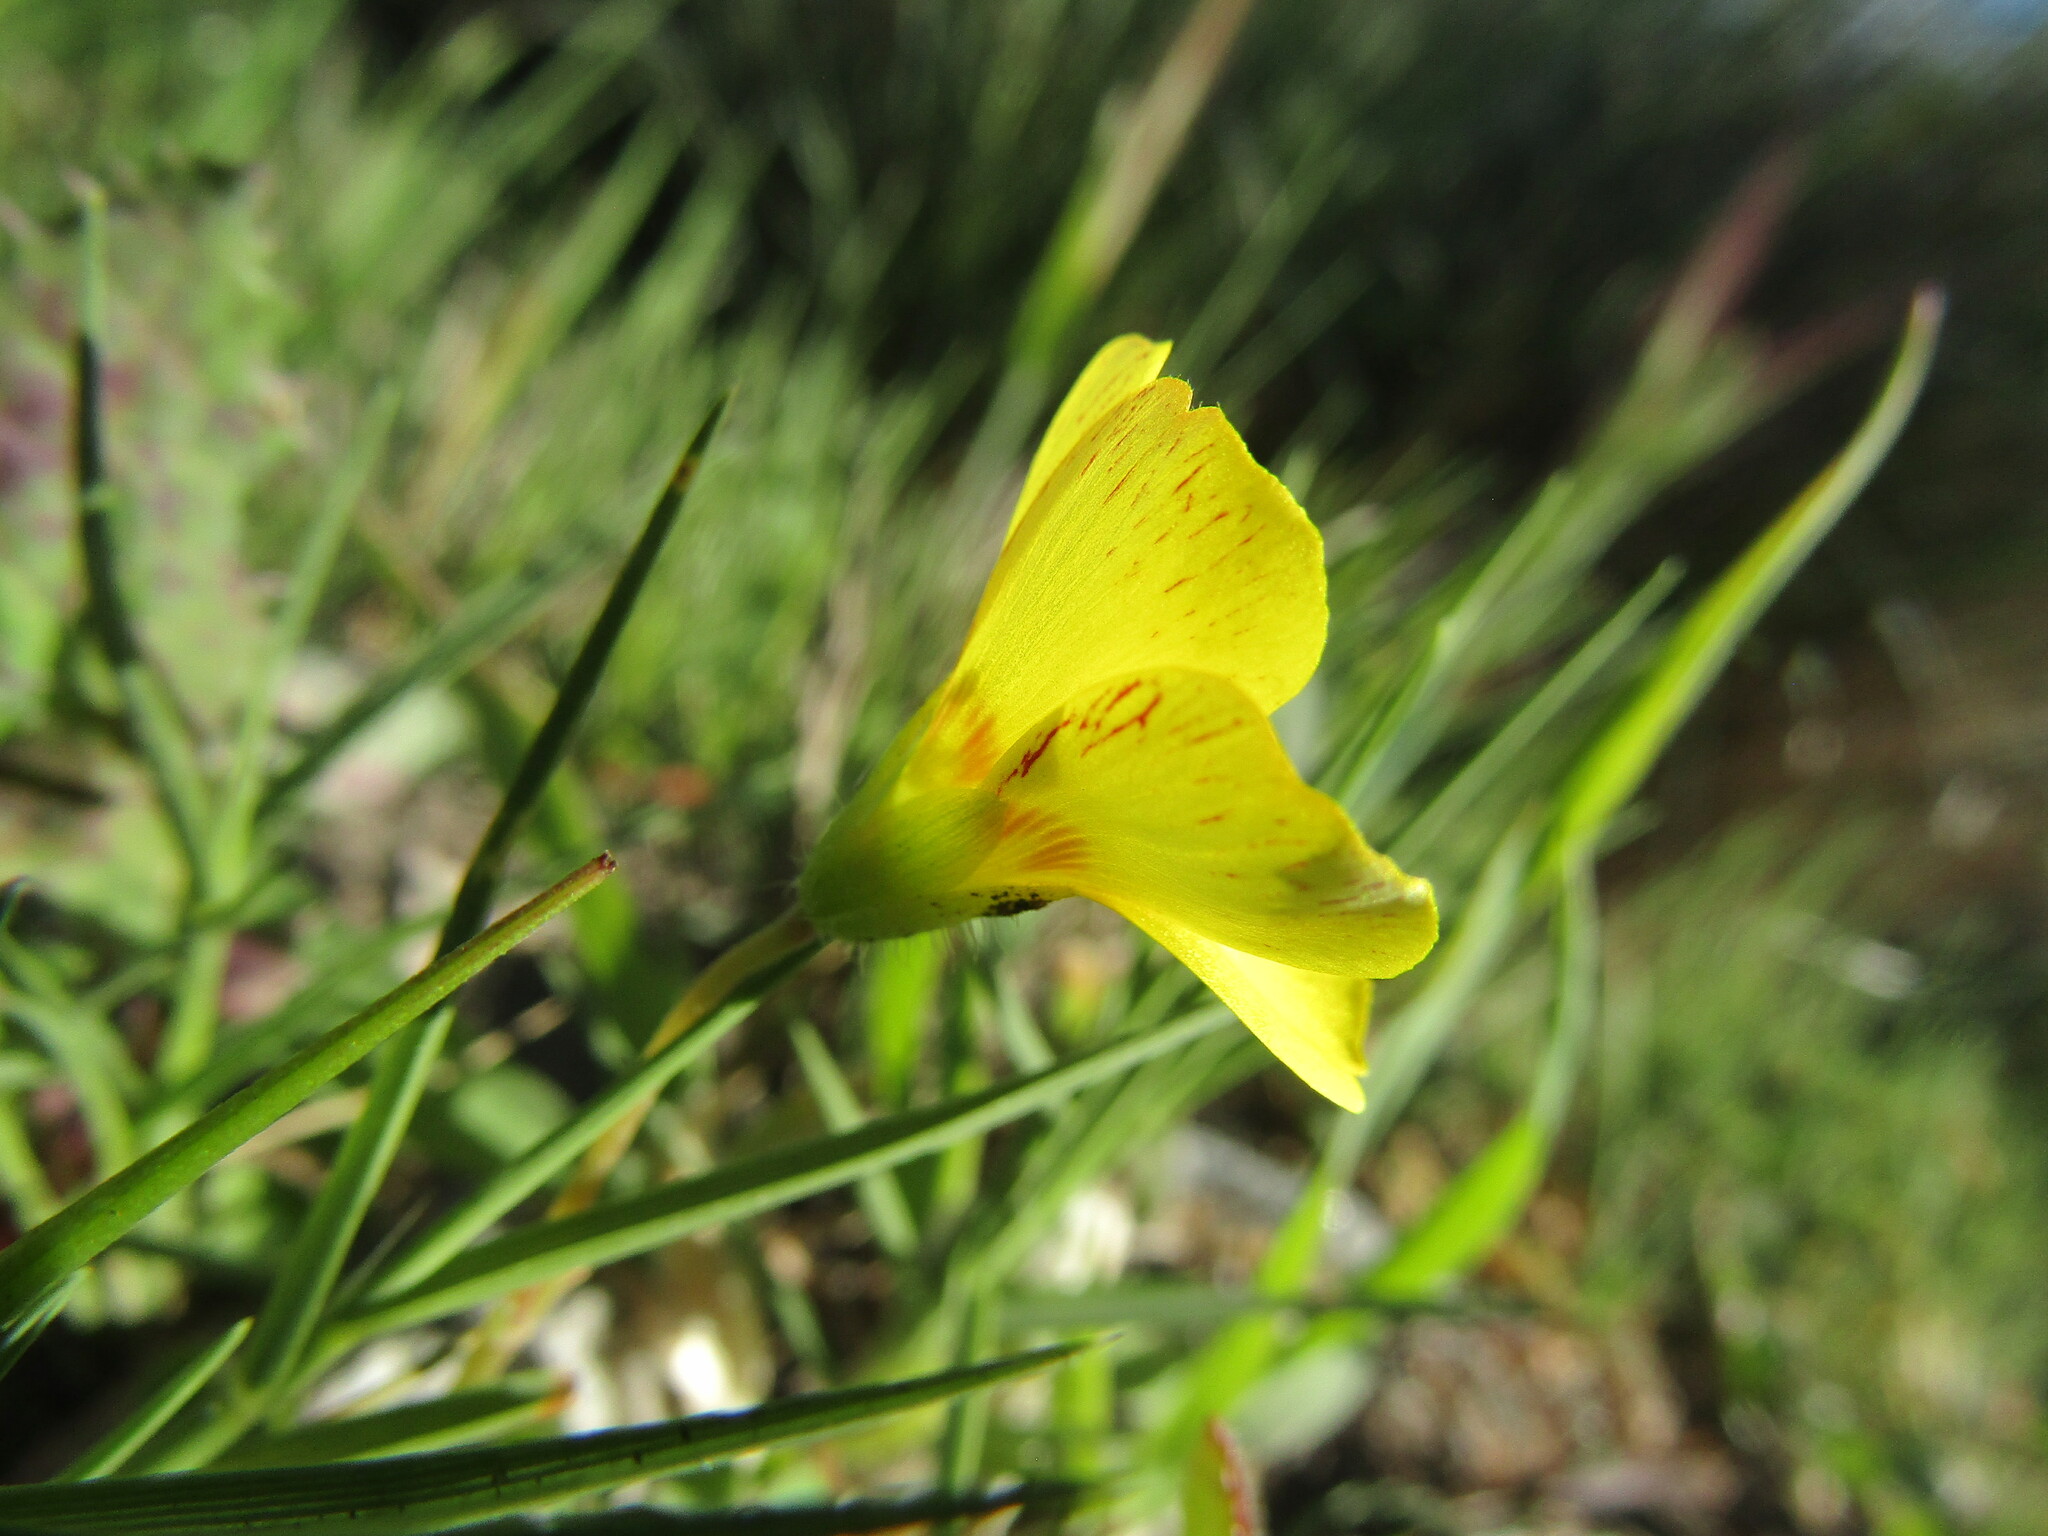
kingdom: Plantae
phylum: Tracheophyta
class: Magnoliopsida
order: Oxalidales
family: Oxalidaceae
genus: Oxalis
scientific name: Oxalis gyrorhiza
